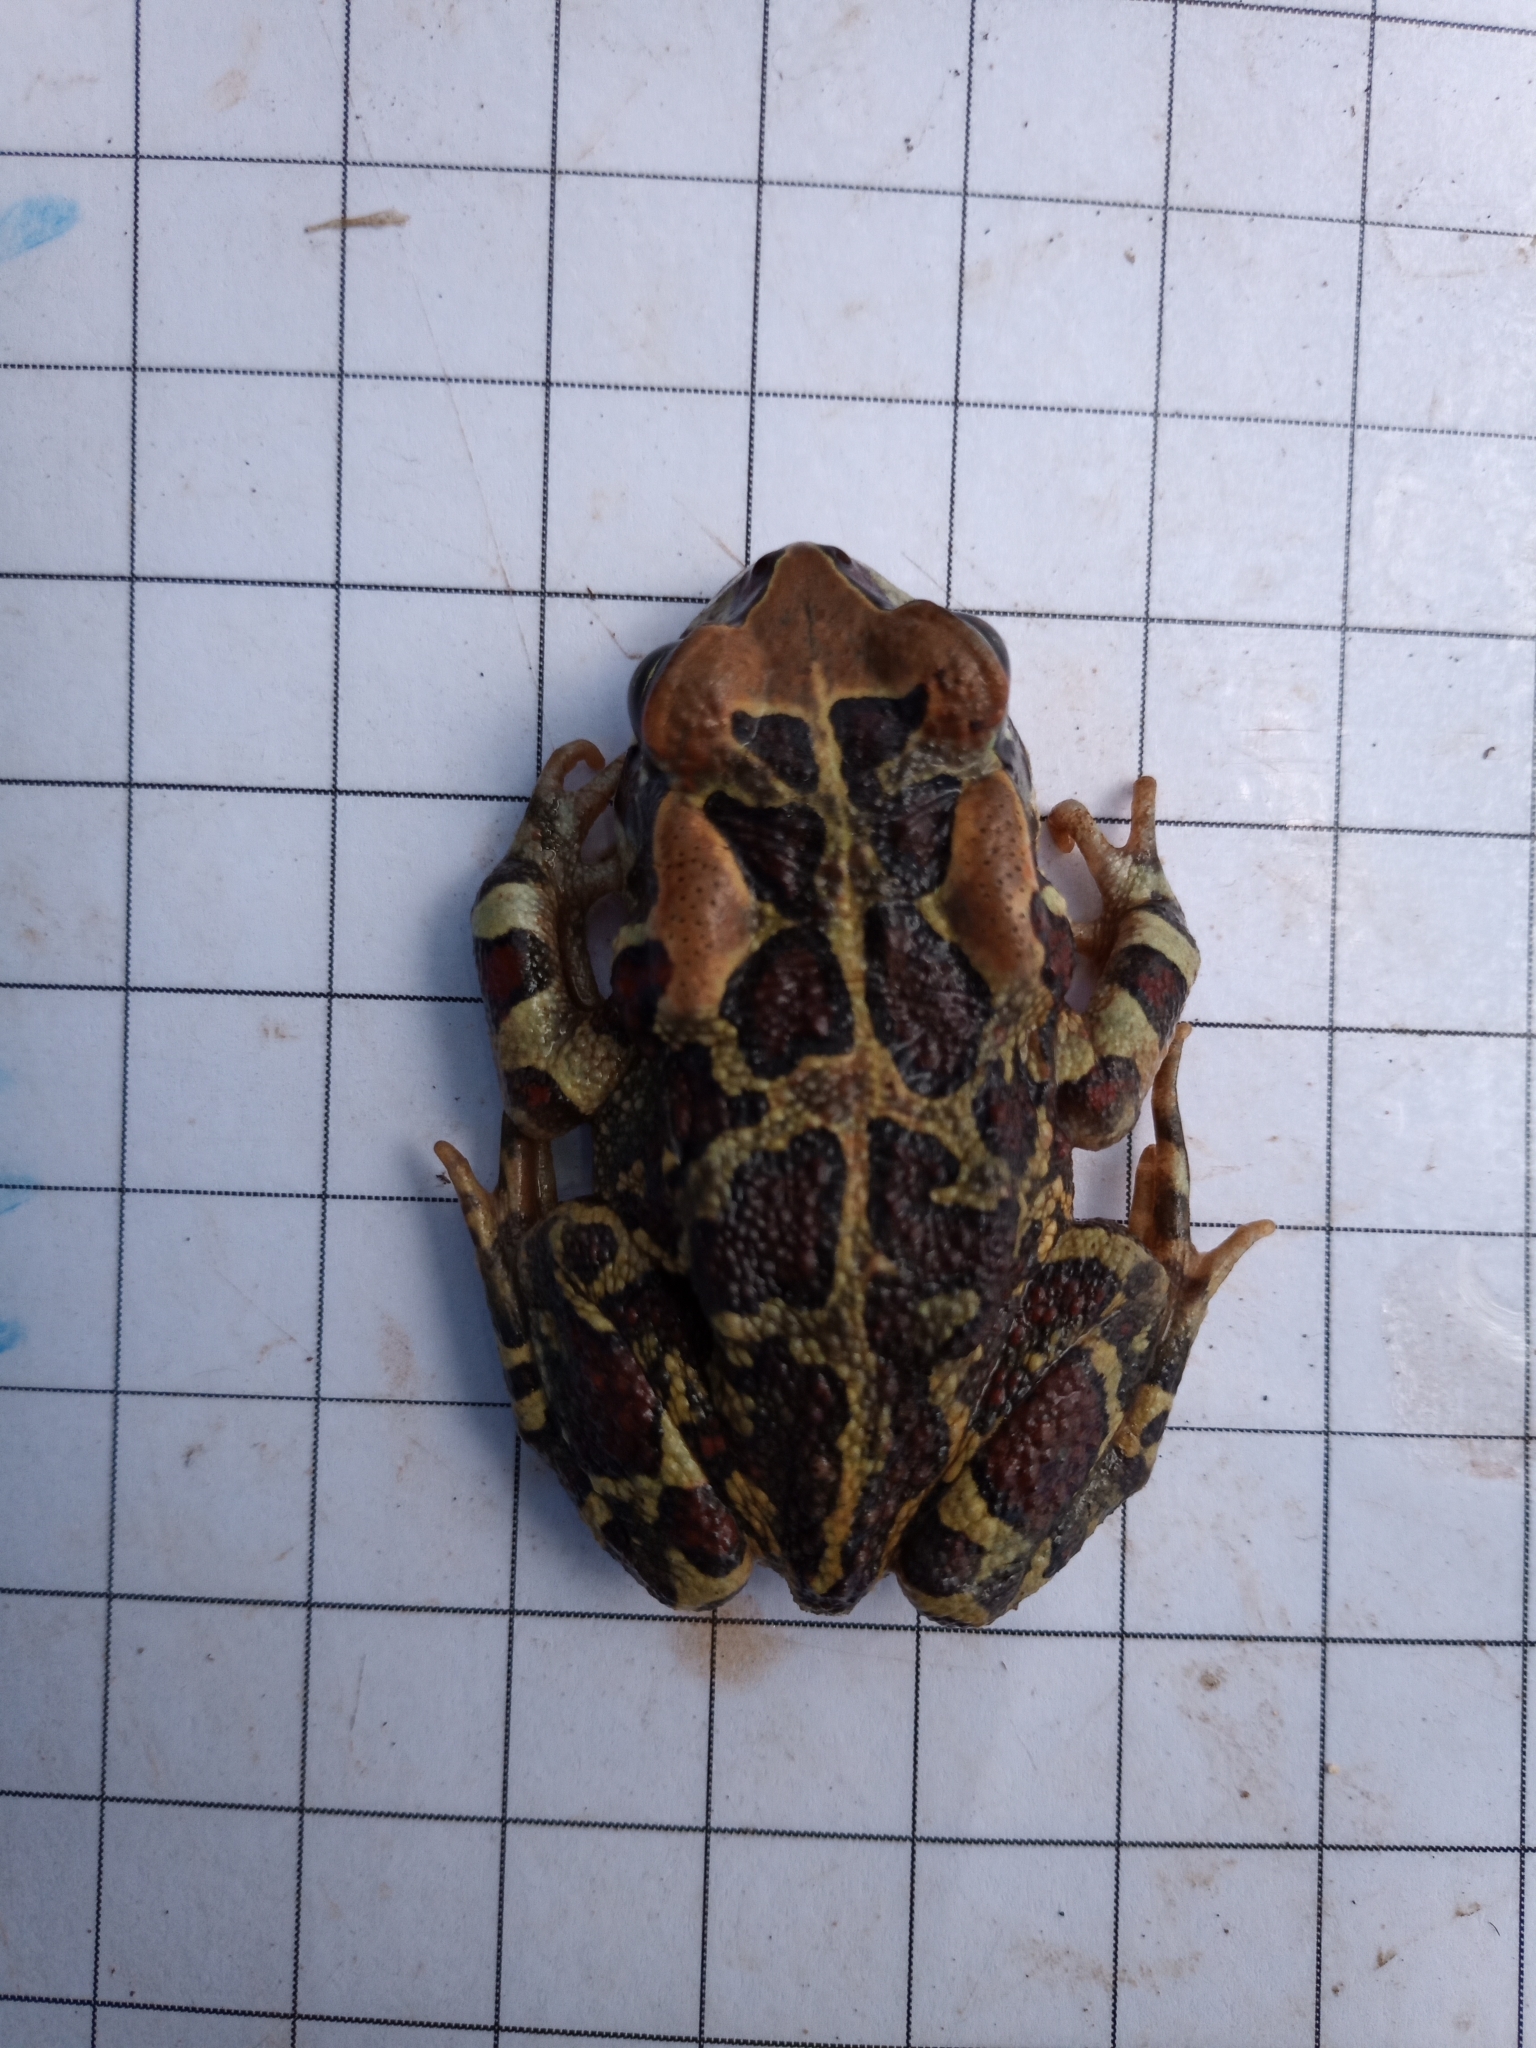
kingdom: Animalia
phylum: Chordata
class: Amphibia
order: Anura
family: Bufonidae
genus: Sclerophrys
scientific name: Sclerophrys pantherina
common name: Panther toad
